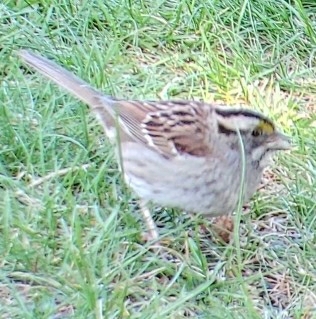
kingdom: Animalia
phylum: Chordata
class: Aves
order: Passeriformes
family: Passerellidae
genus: Zonotrichia
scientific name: Zonotrichia albicollis
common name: White-throated sparrow
